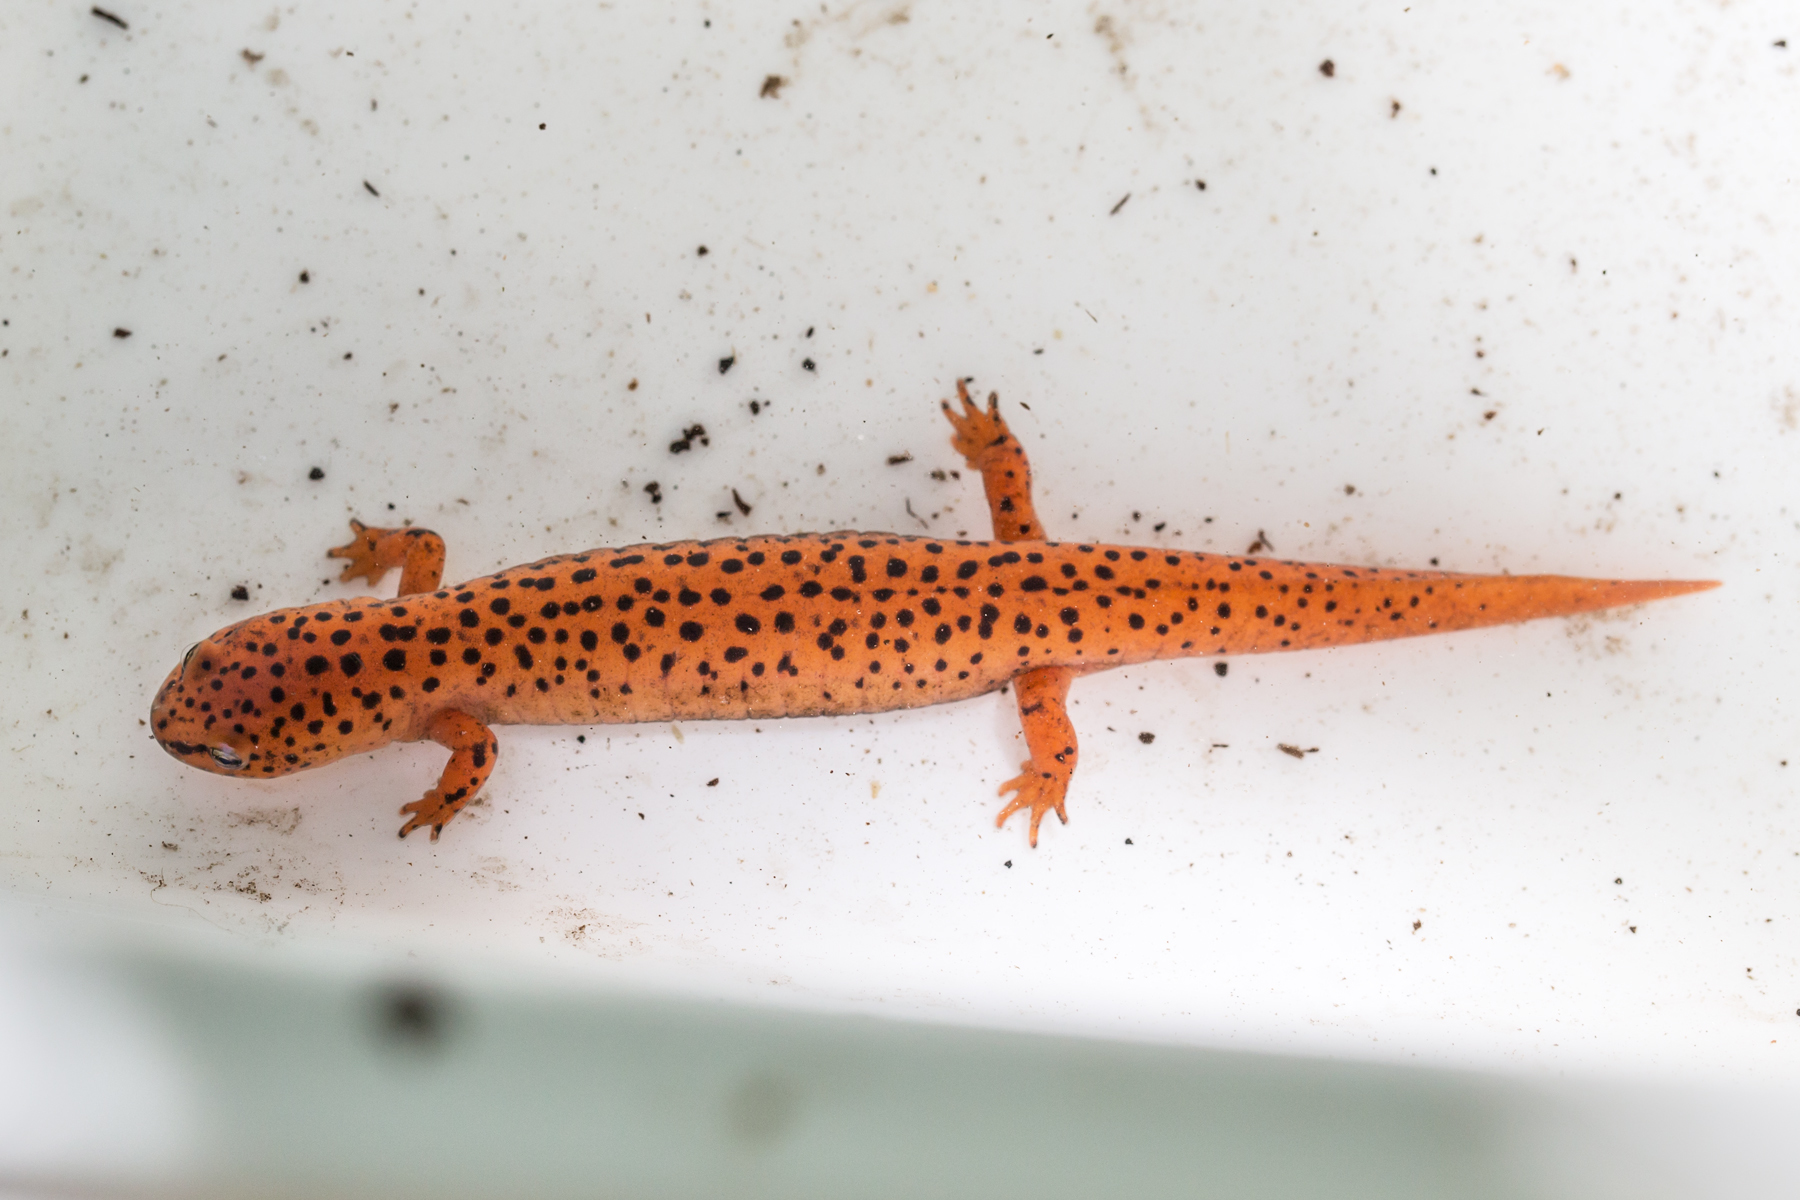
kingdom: Animalia
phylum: Chordata
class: Amphibia
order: Caudata
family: Plethodontidae
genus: Pseudotriton
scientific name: Pseudotriton ruber
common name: Red salamander
